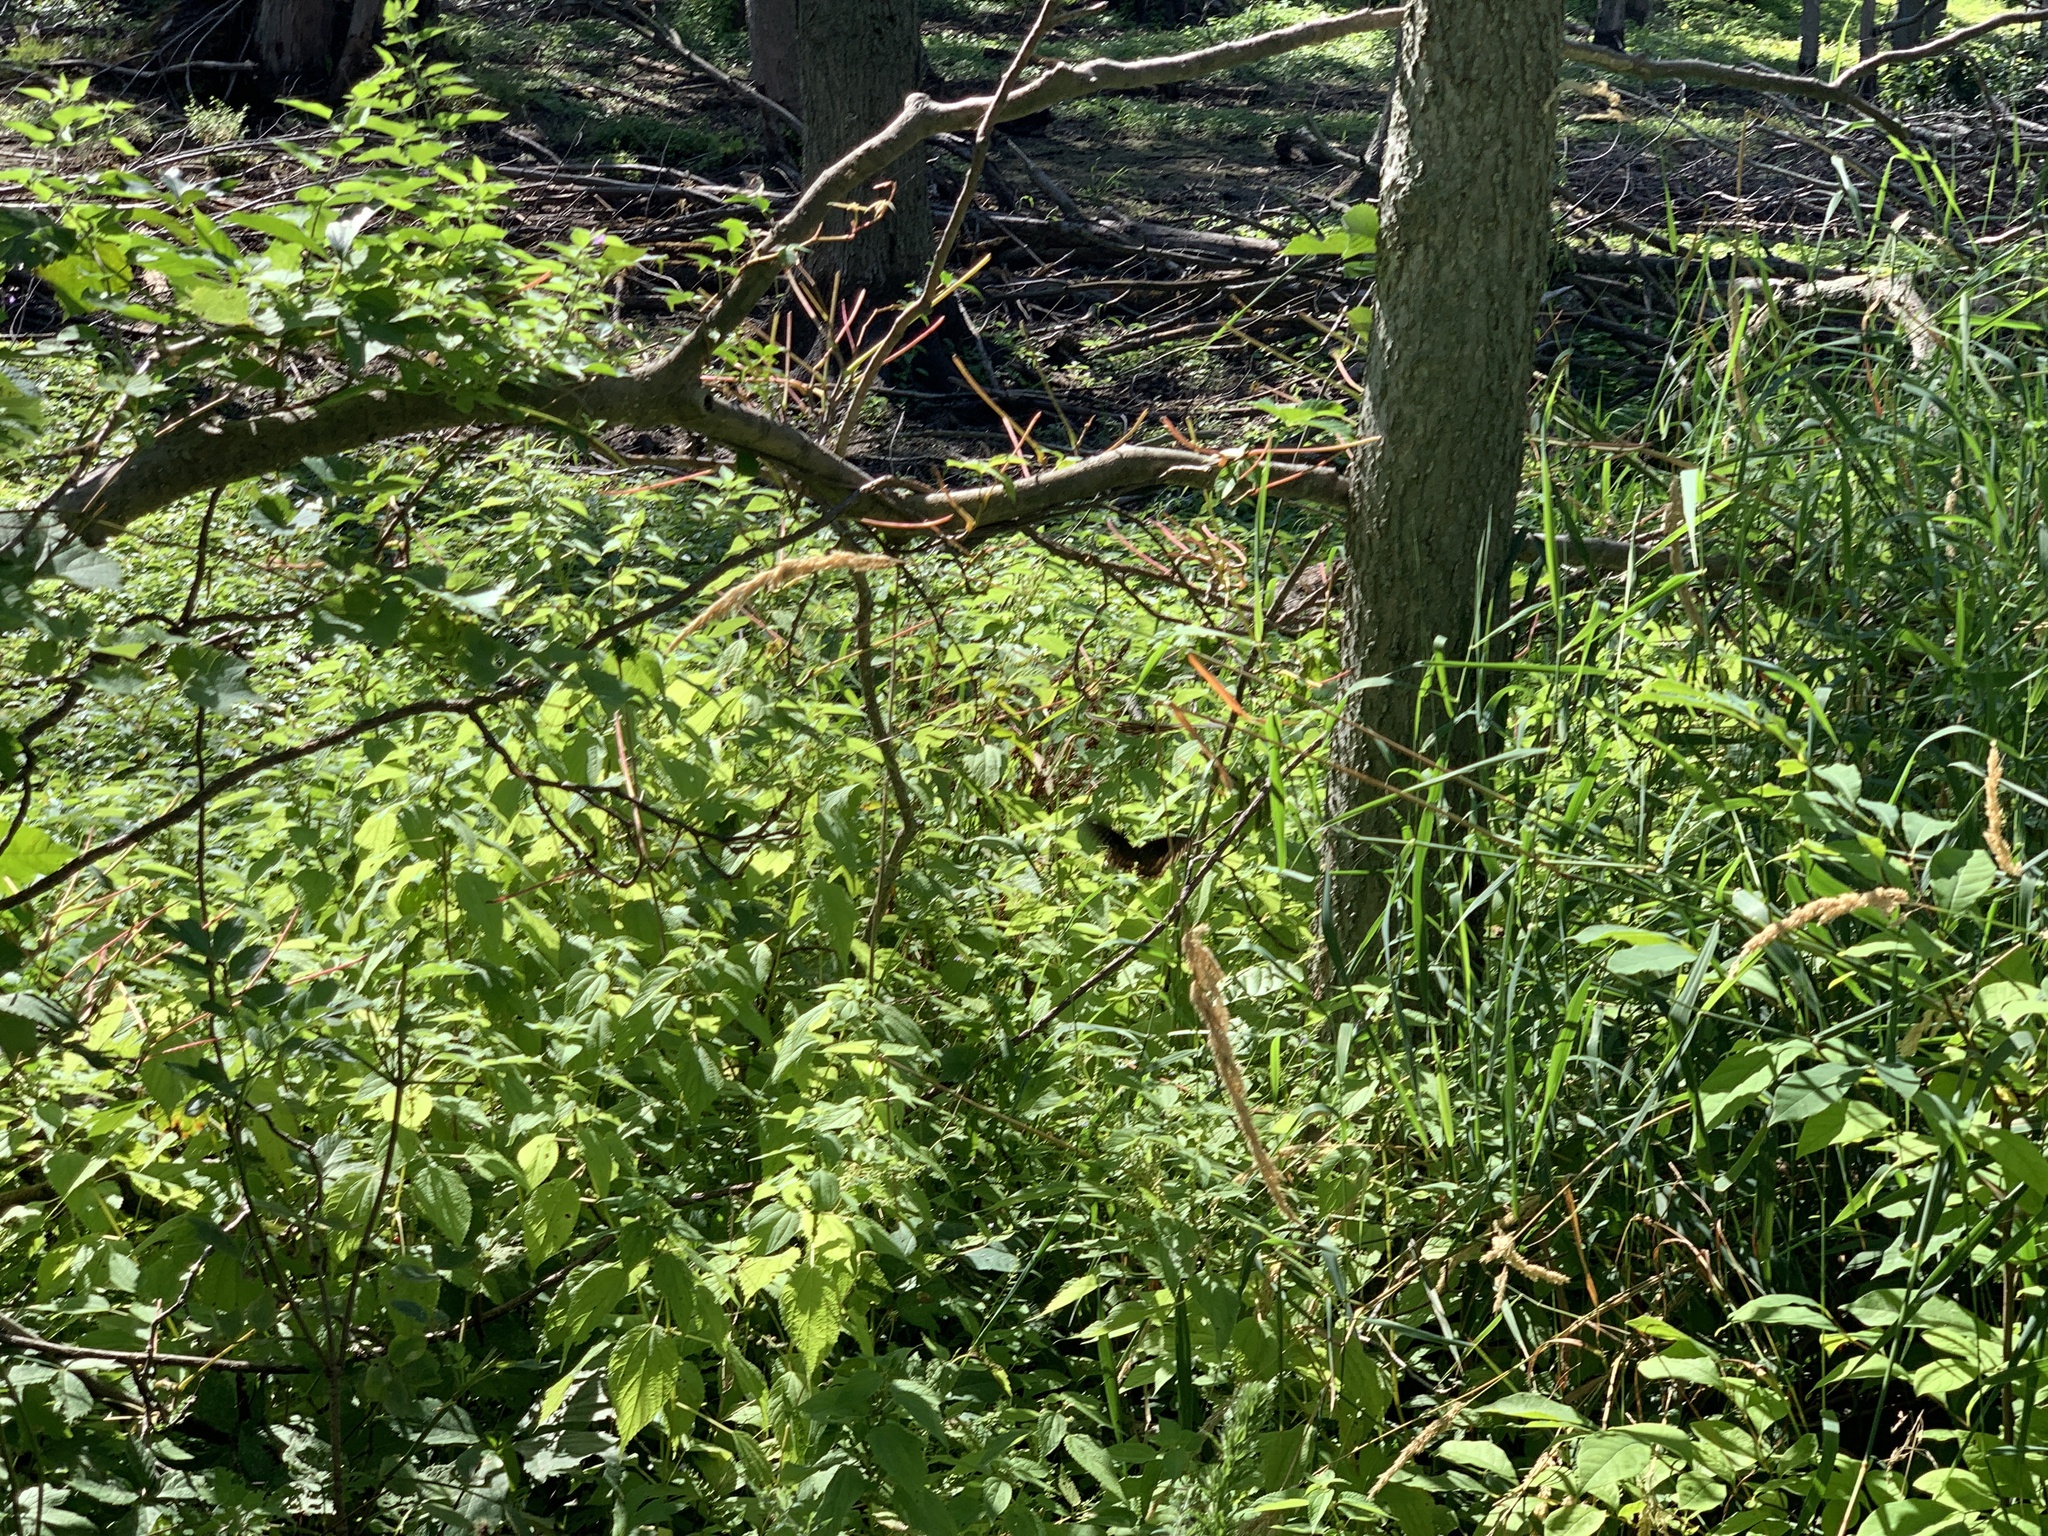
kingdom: Animalia
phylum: Arthropoda
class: Insecta
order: Lepidoptera
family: Papilionidae
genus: Papilio
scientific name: Papilio troilus
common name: Spicebush swallowtail
